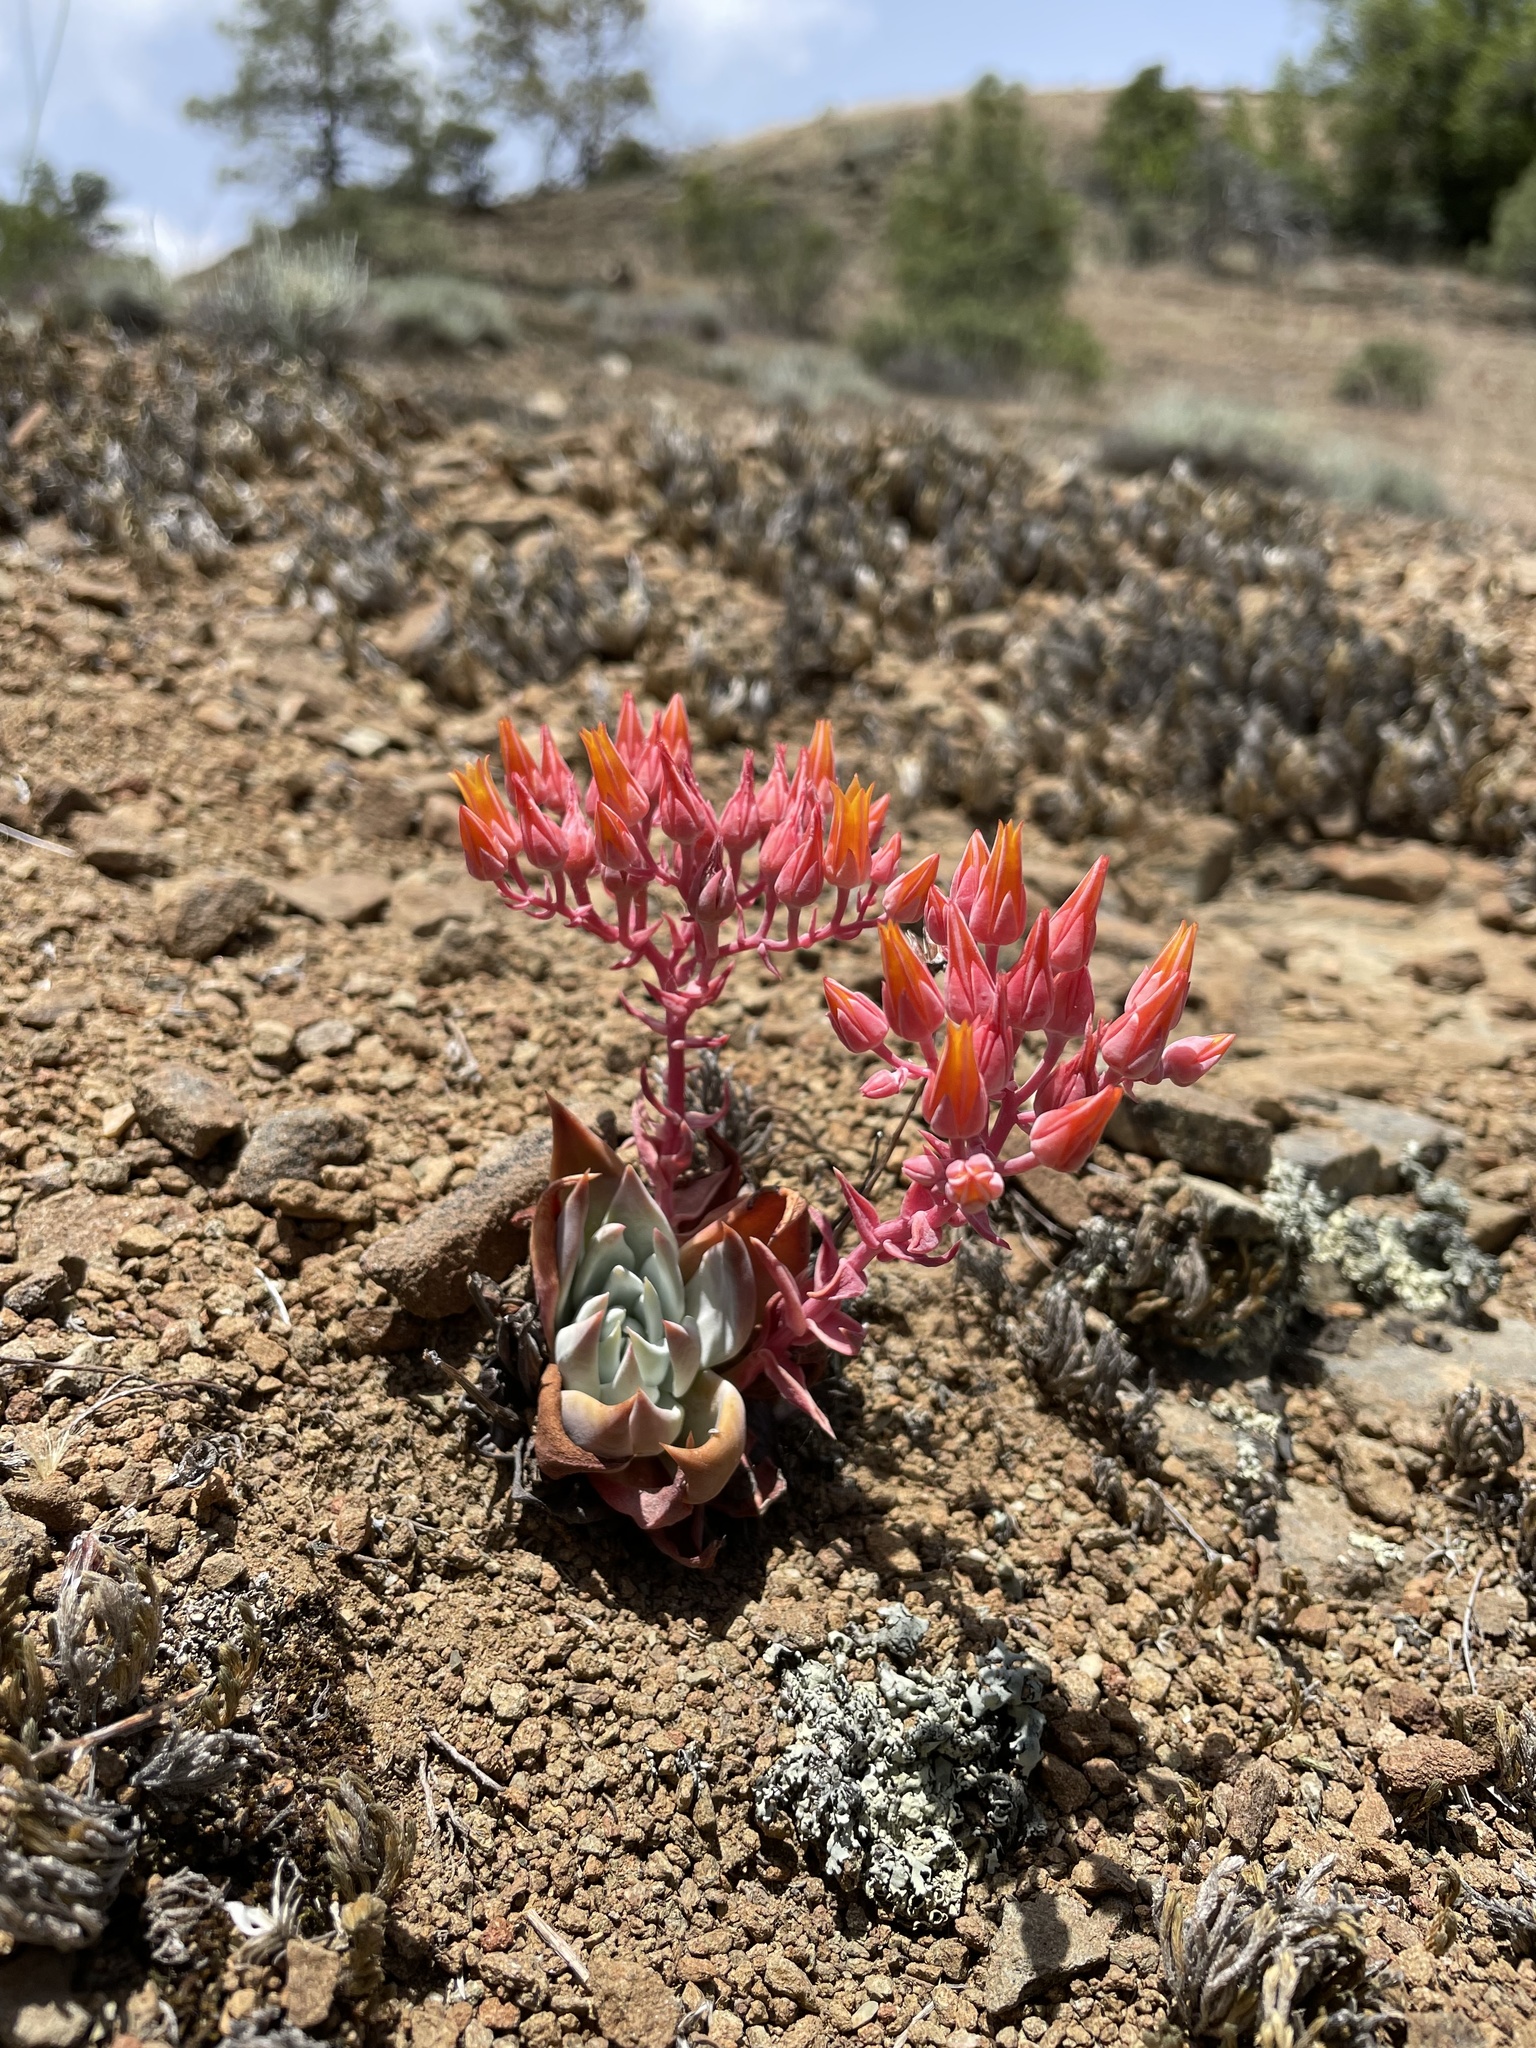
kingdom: Plantae
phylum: Tracheophyta
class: Magnoliopsida
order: Saxifragales
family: Crassulaceae
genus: Dudleya
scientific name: Dudleya cymosa
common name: Canyon dudleya
